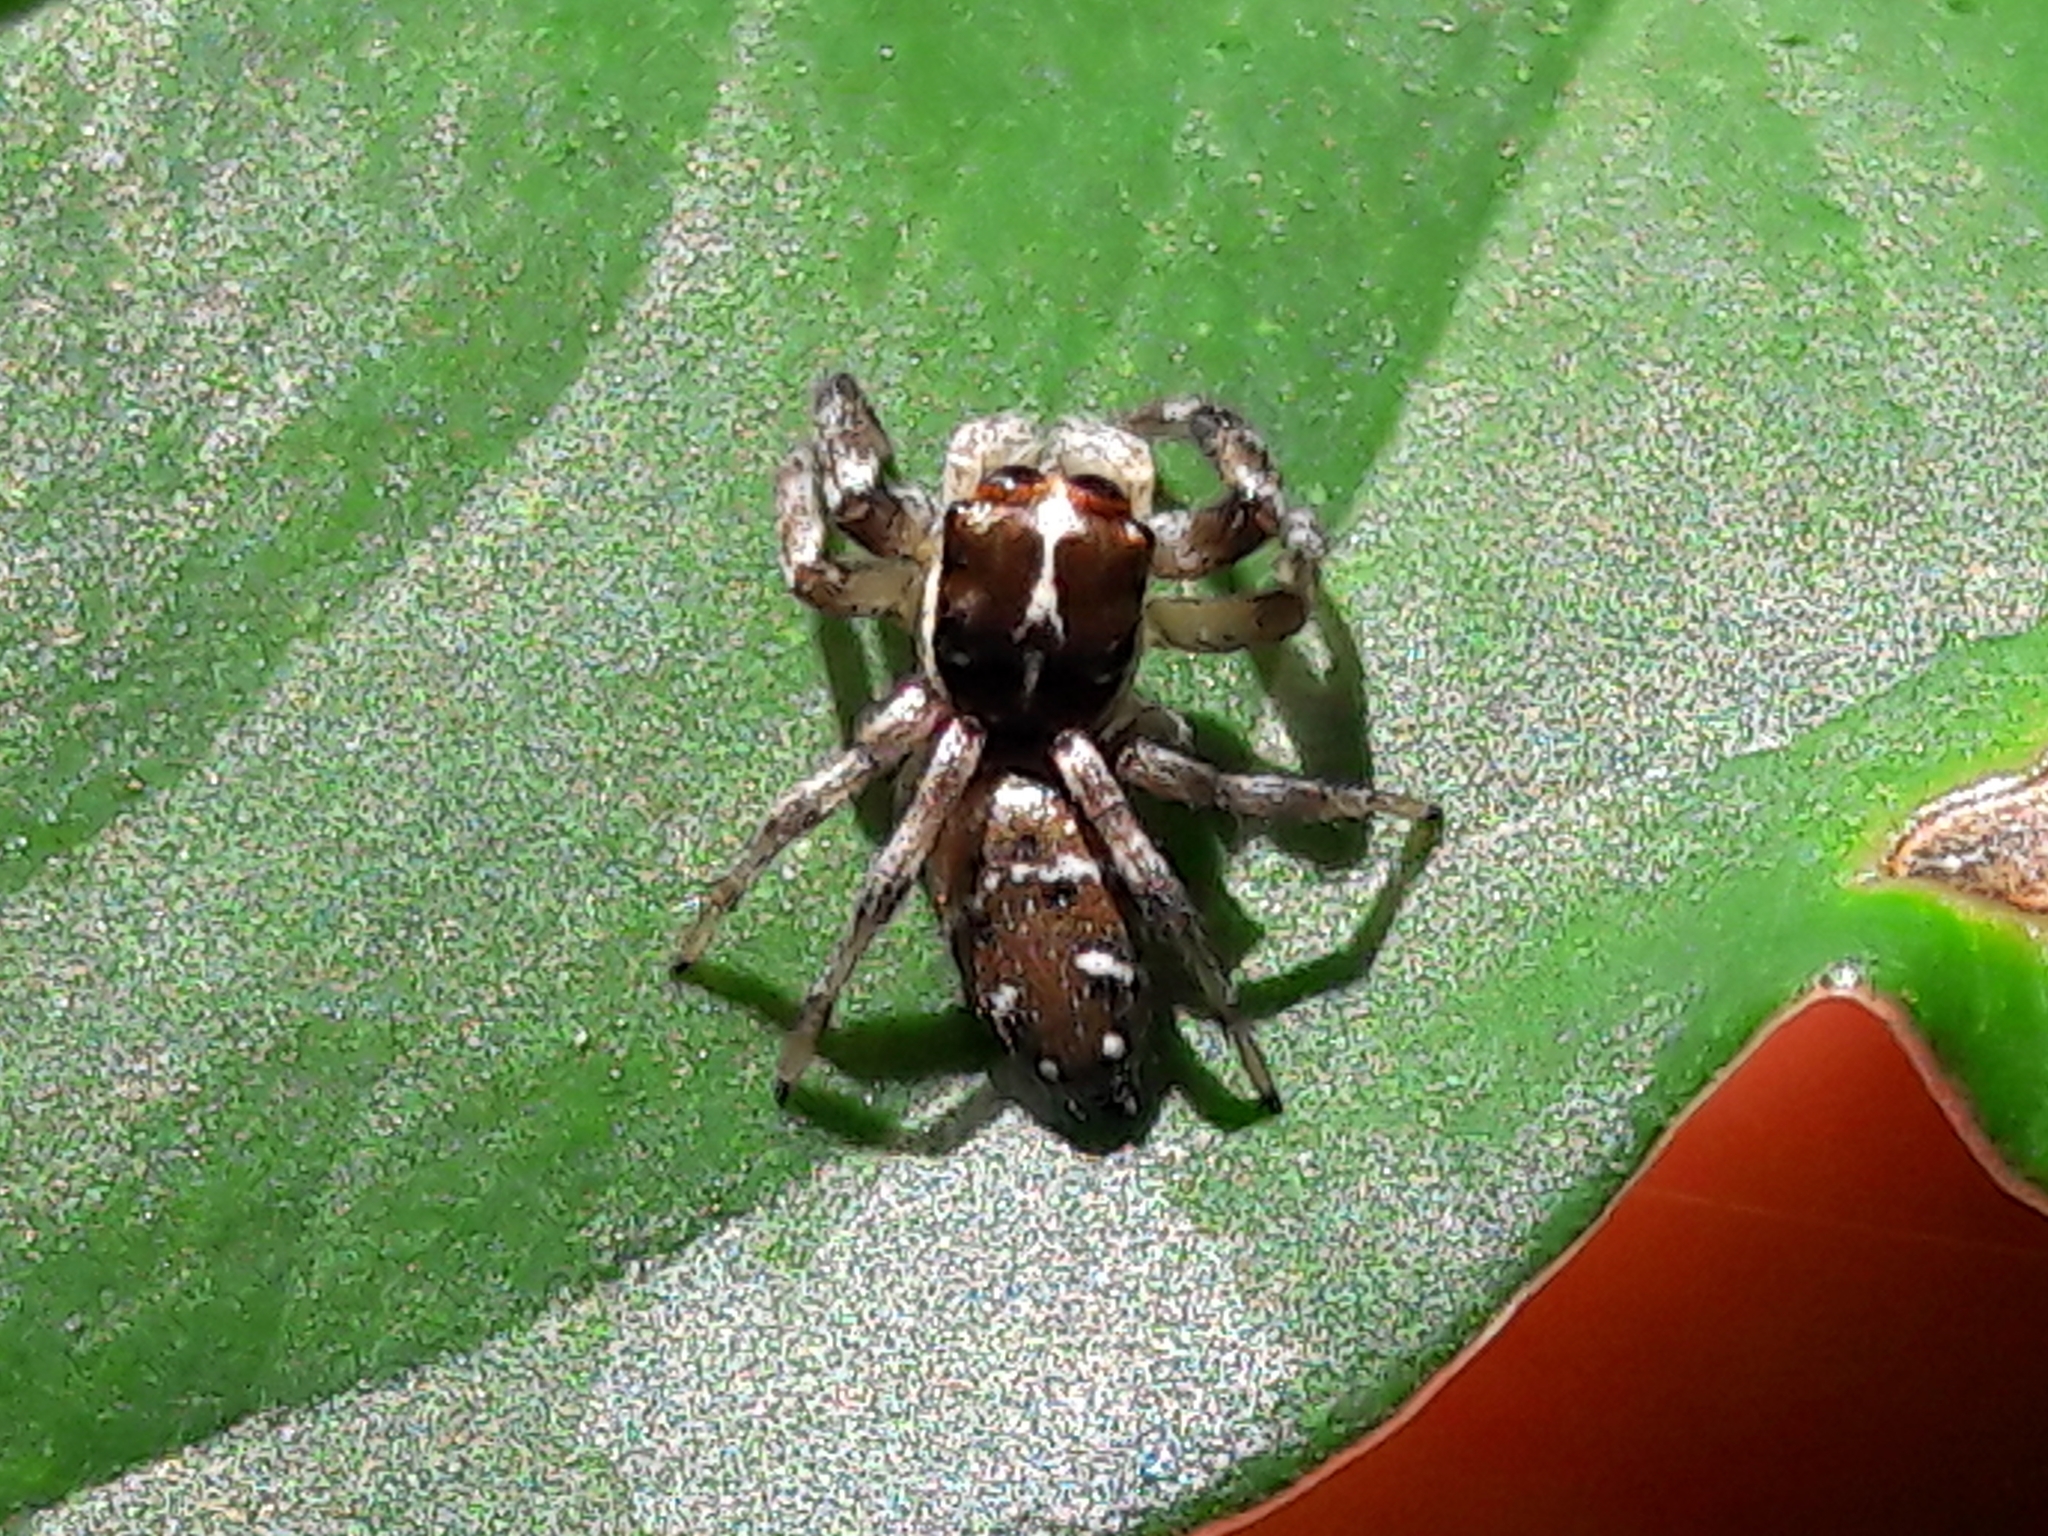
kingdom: Animalia
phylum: Arthropoda
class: Arachnida
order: Araneae
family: Salticidae
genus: Philira
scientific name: Philira micans
